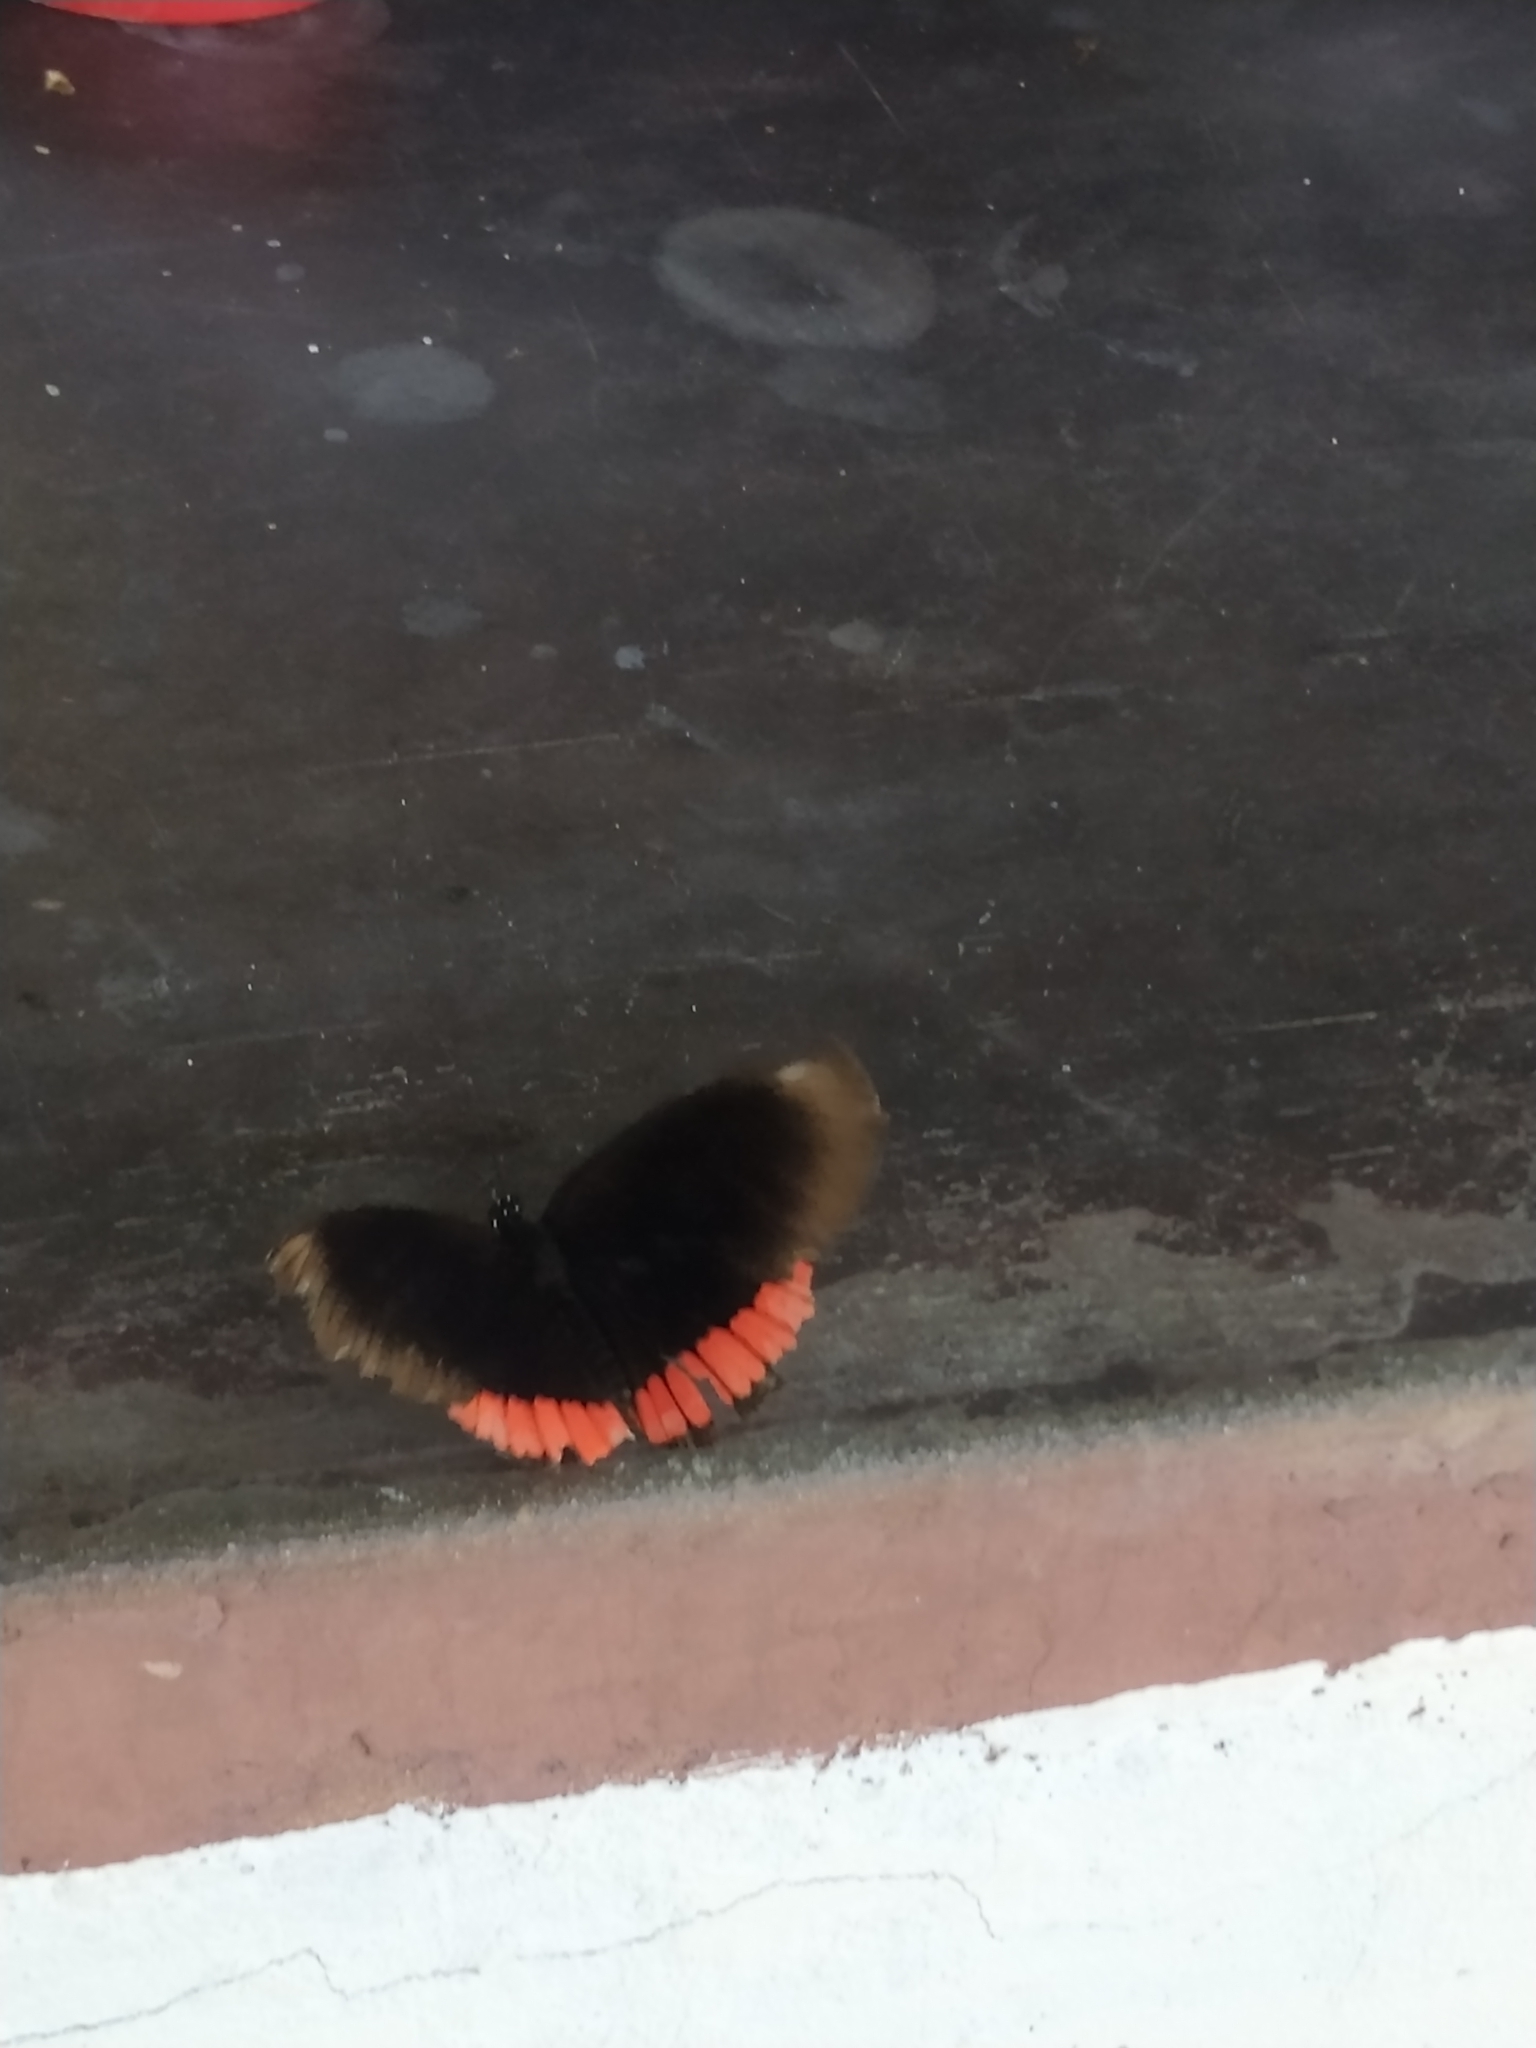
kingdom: Animalia
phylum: Arthropoda
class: Insecta
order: Lepidoptera
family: Sesiidae
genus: Sesia
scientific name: Sesia Biblis hyperia
